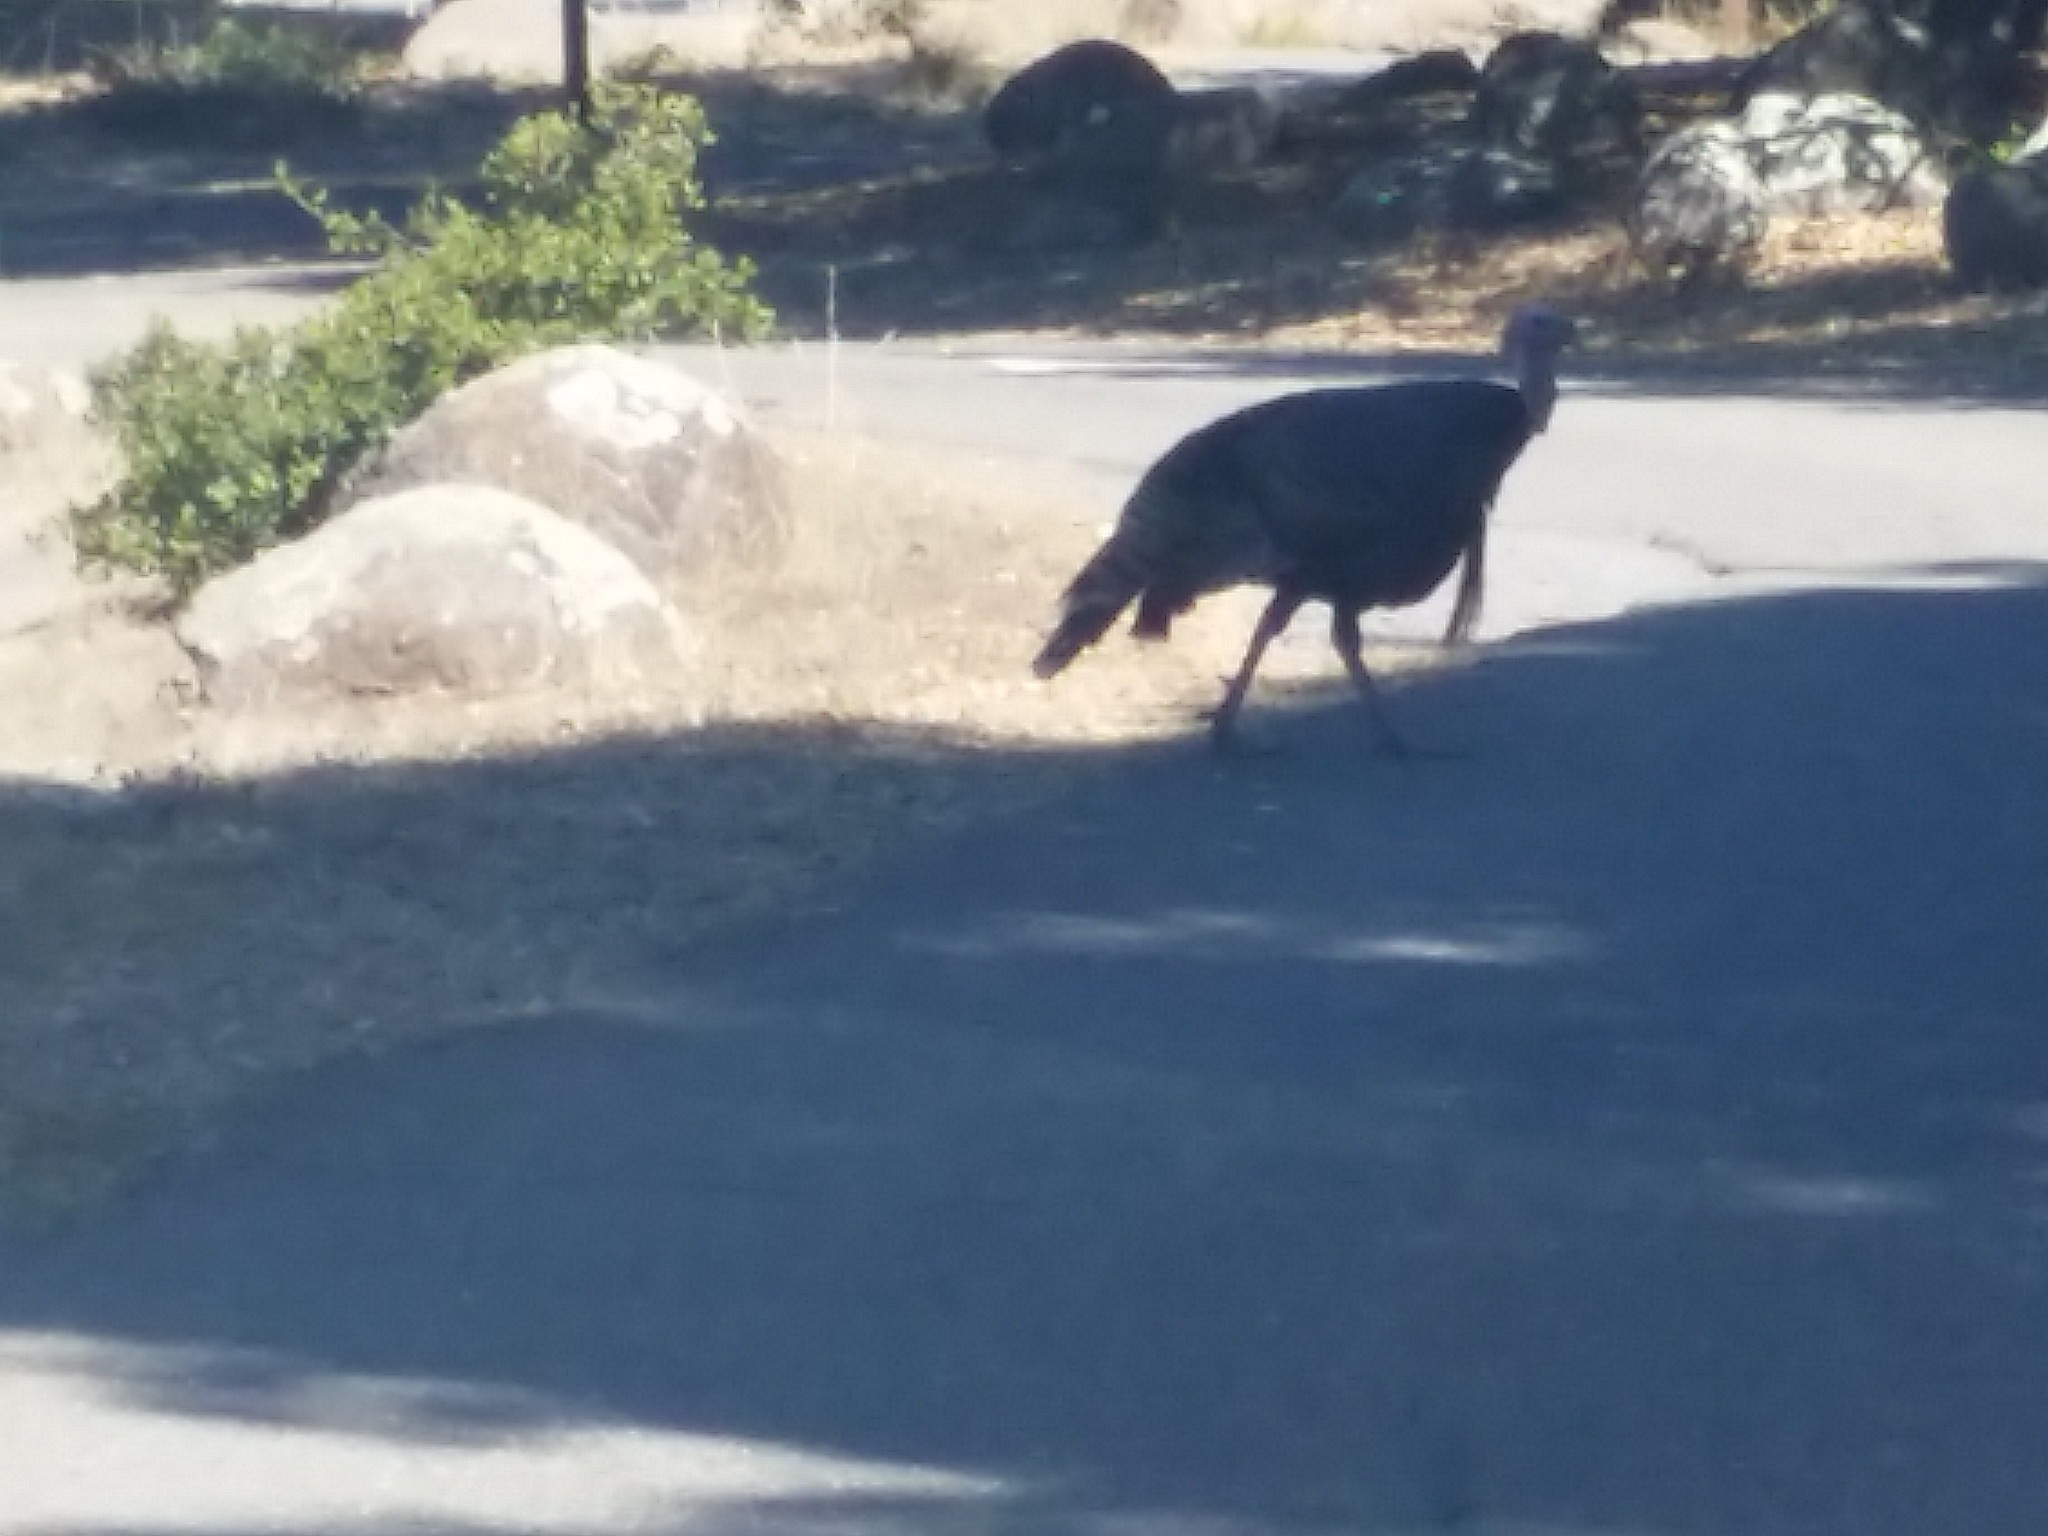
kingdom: Animalia
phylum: Chordata
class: Aves
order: Galliformes
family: Phasianidae
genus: Meleagris
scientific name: Meleagris gallopavo
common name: Wild turkey
